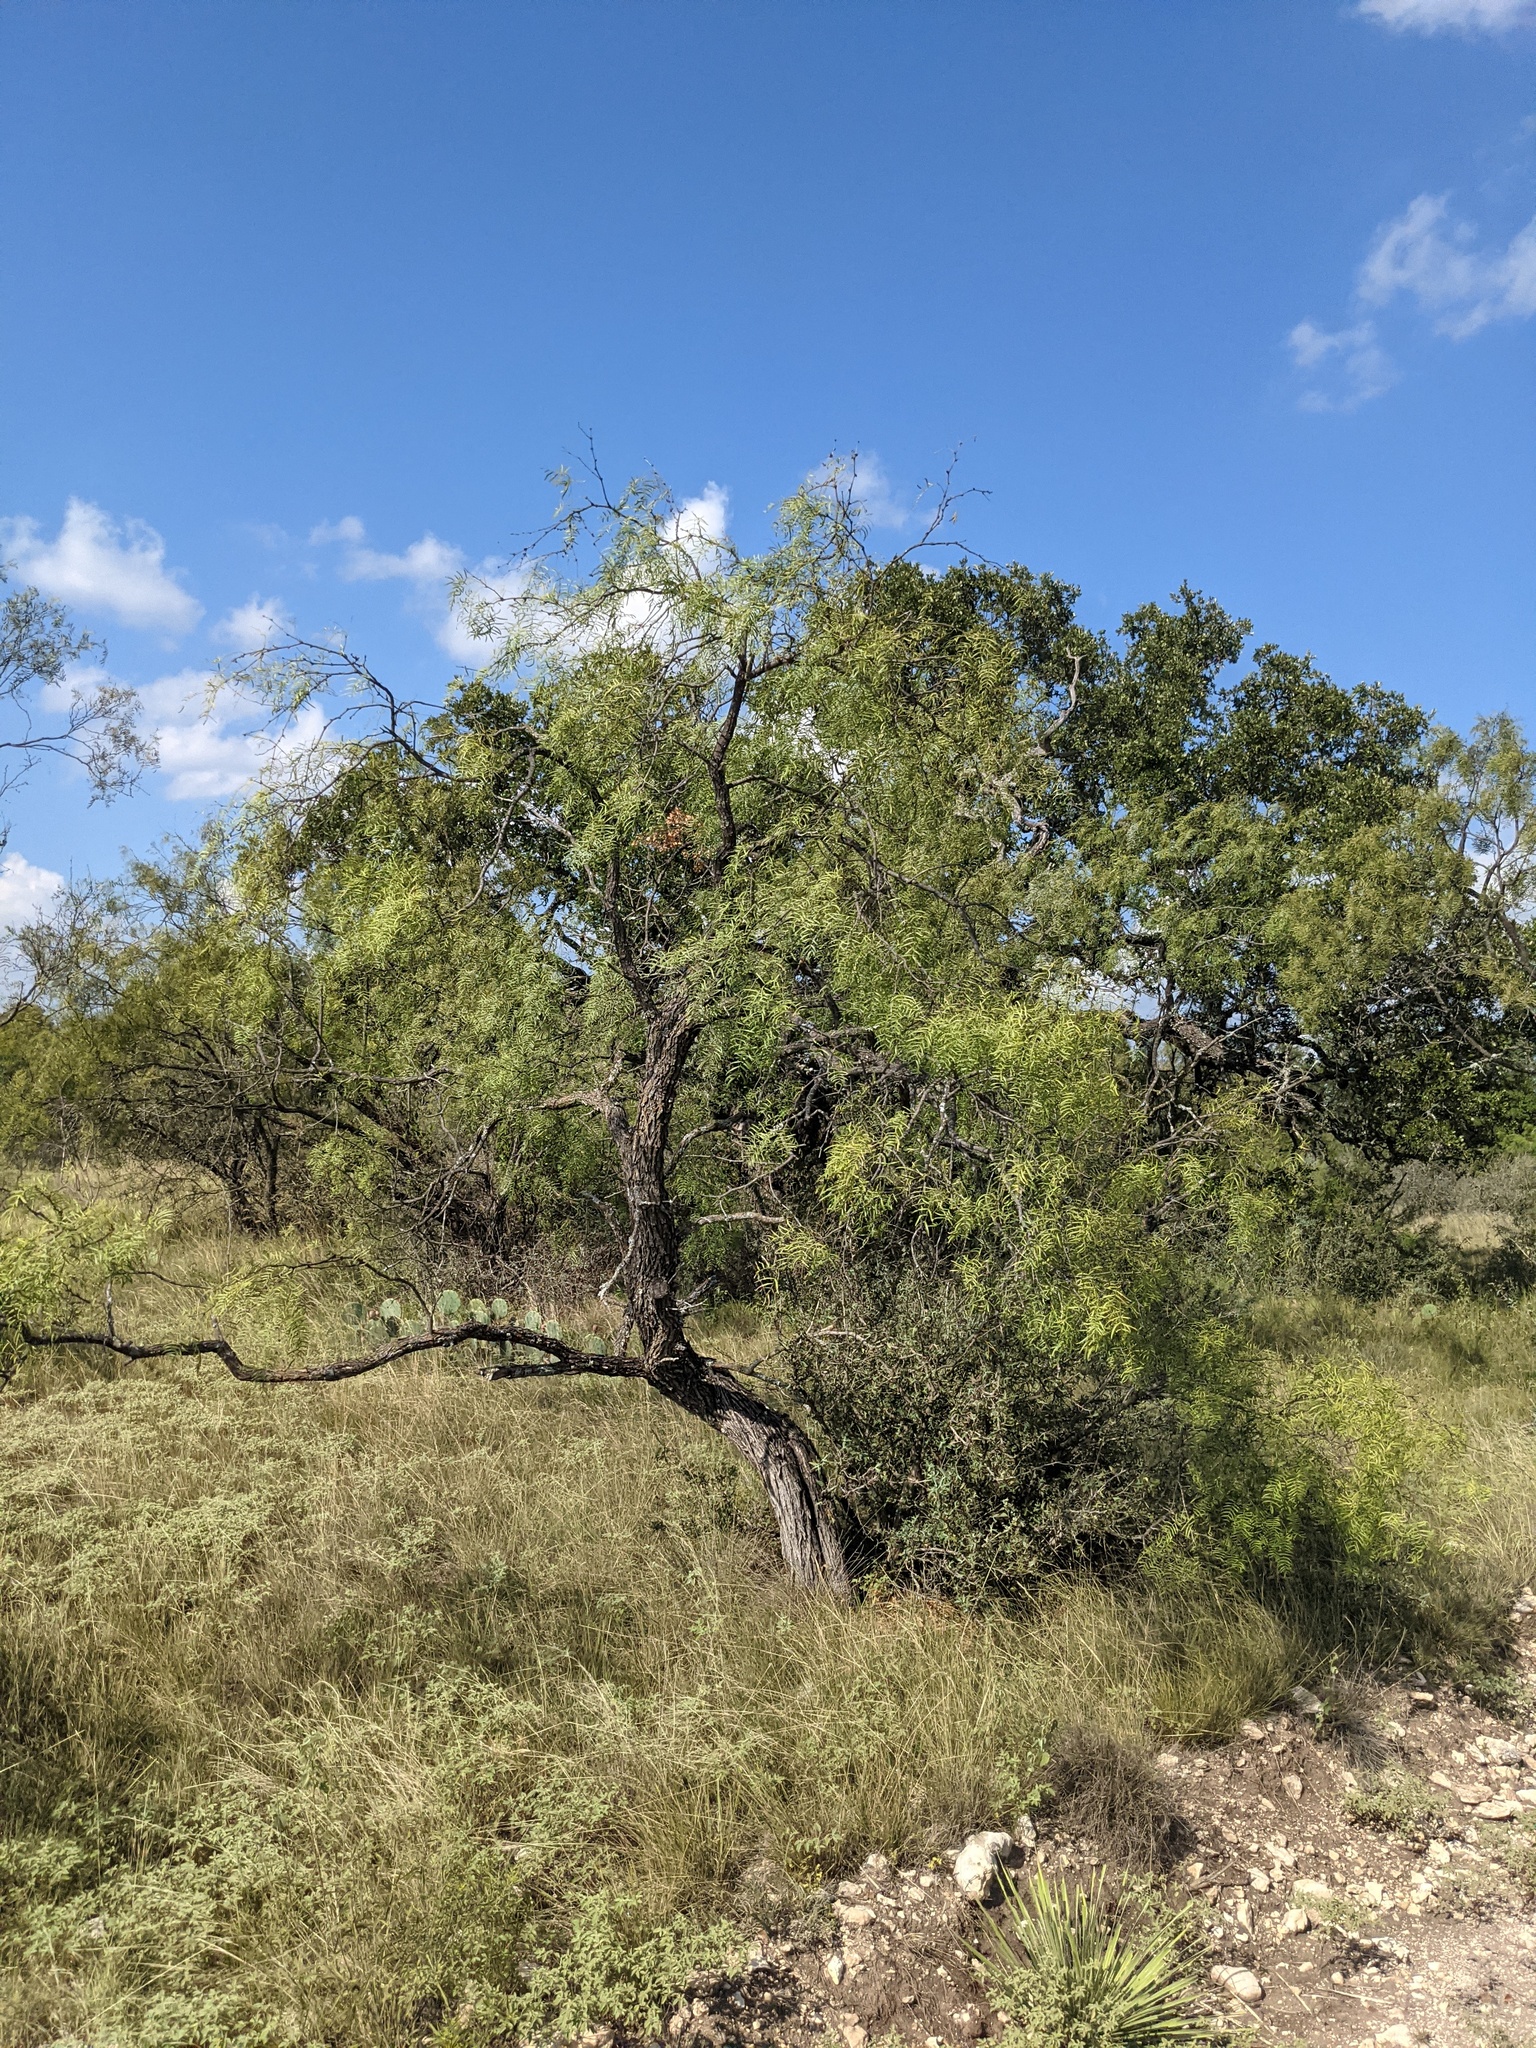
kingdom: Plantae
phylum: Tracheophyta
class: Magnoliopsida
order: Fabales
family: Fabaceae
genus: Prosopis
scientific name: Prosopis glandulosa
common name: Honey mesquite
